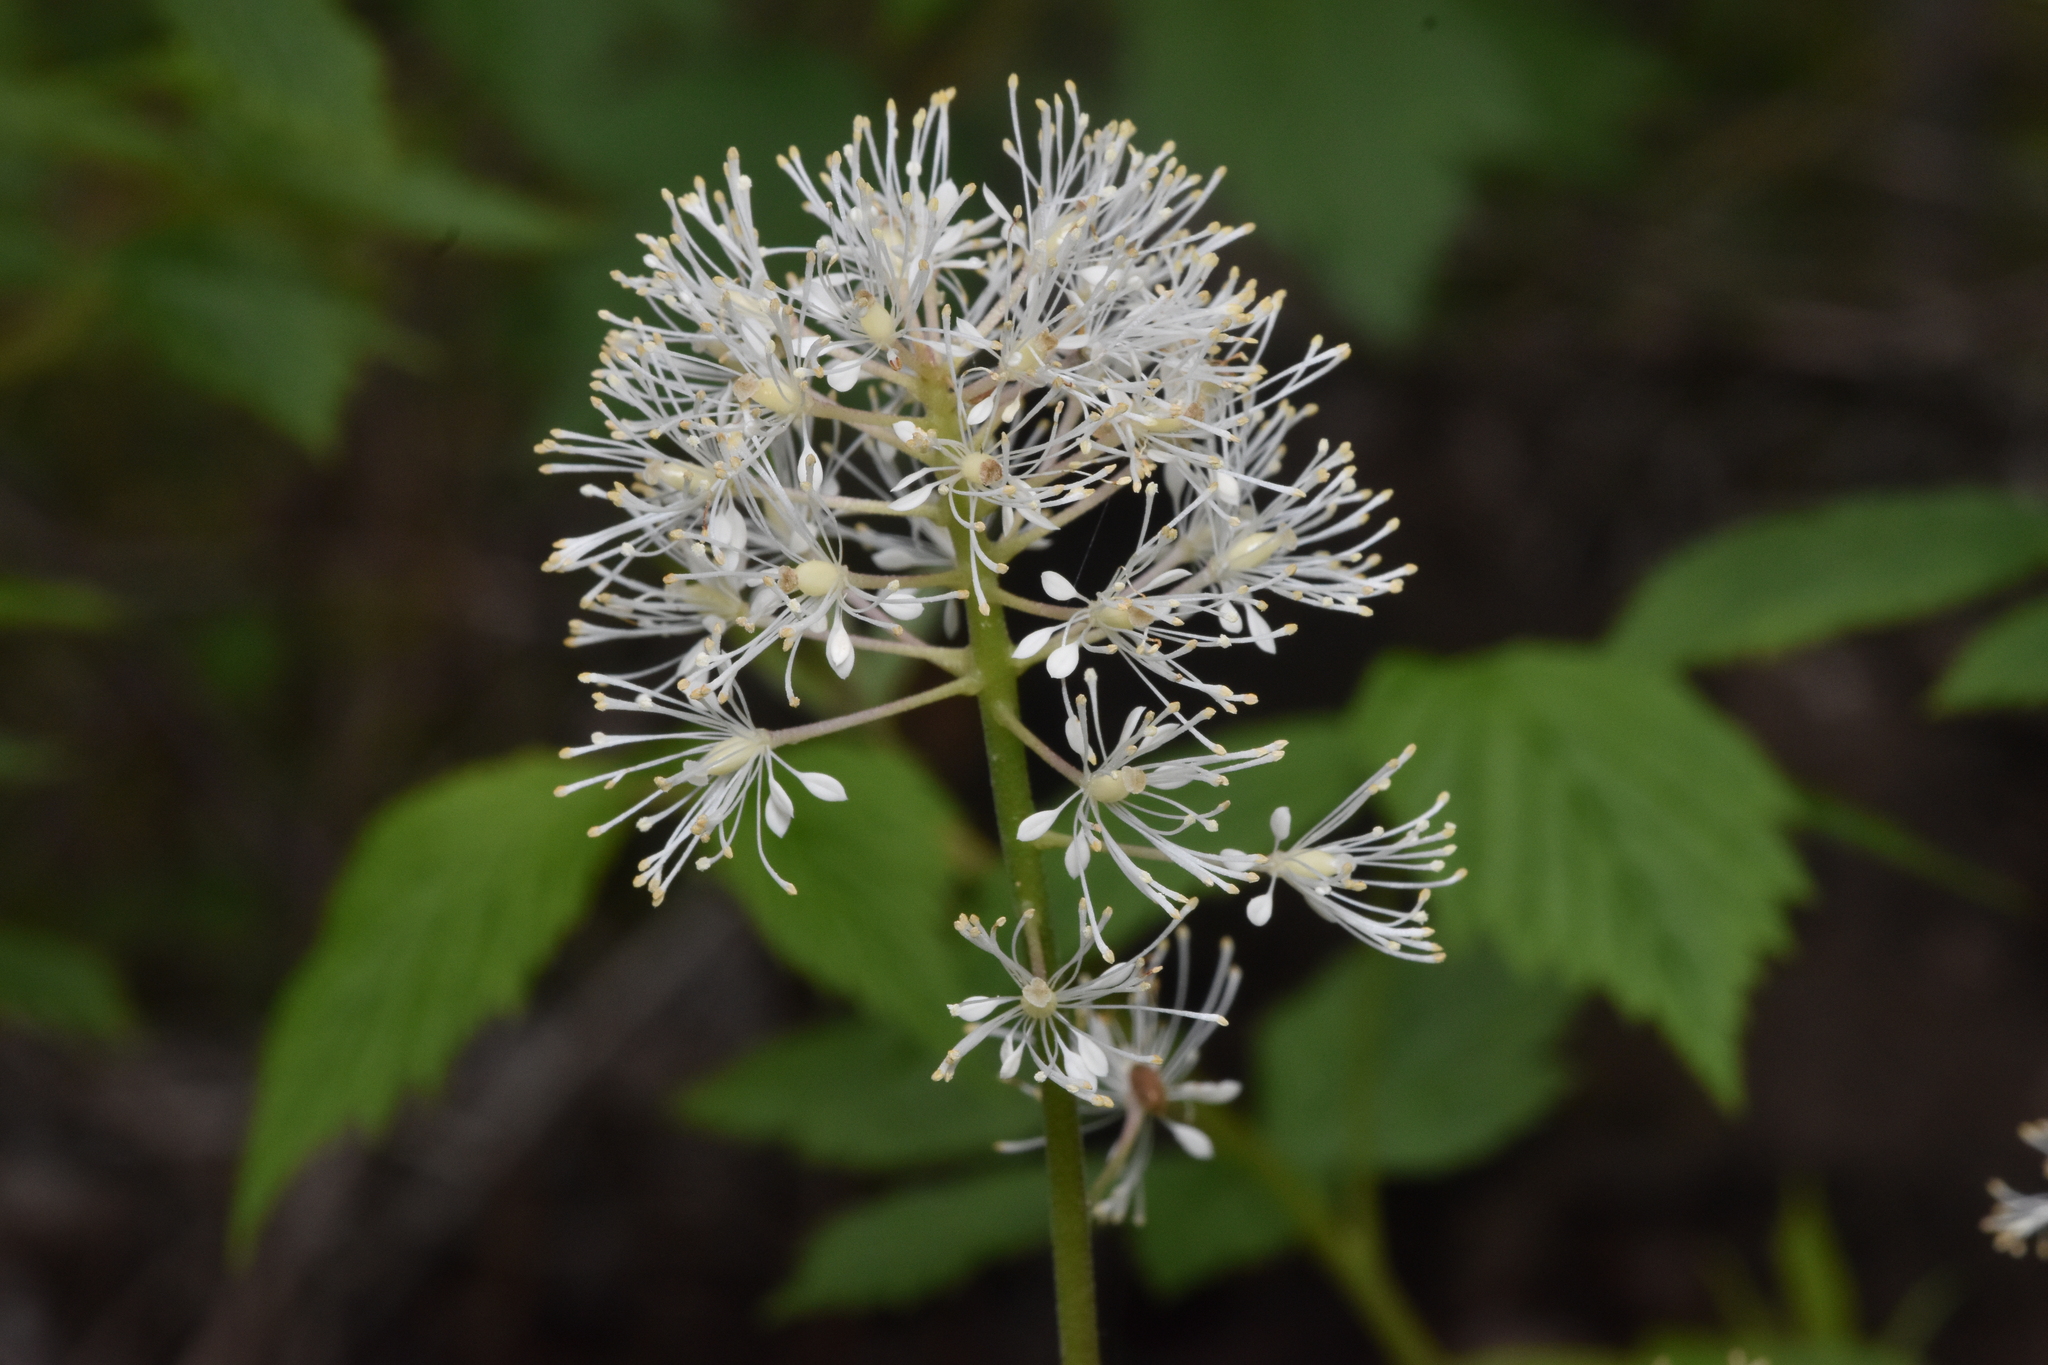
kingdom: Plantae
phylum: Tracheophyta
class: Magnoliopsida
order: Ranunculales
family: Ranunculaceae
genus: Actaea
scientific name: Actaea rubra
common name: Red baneberry
